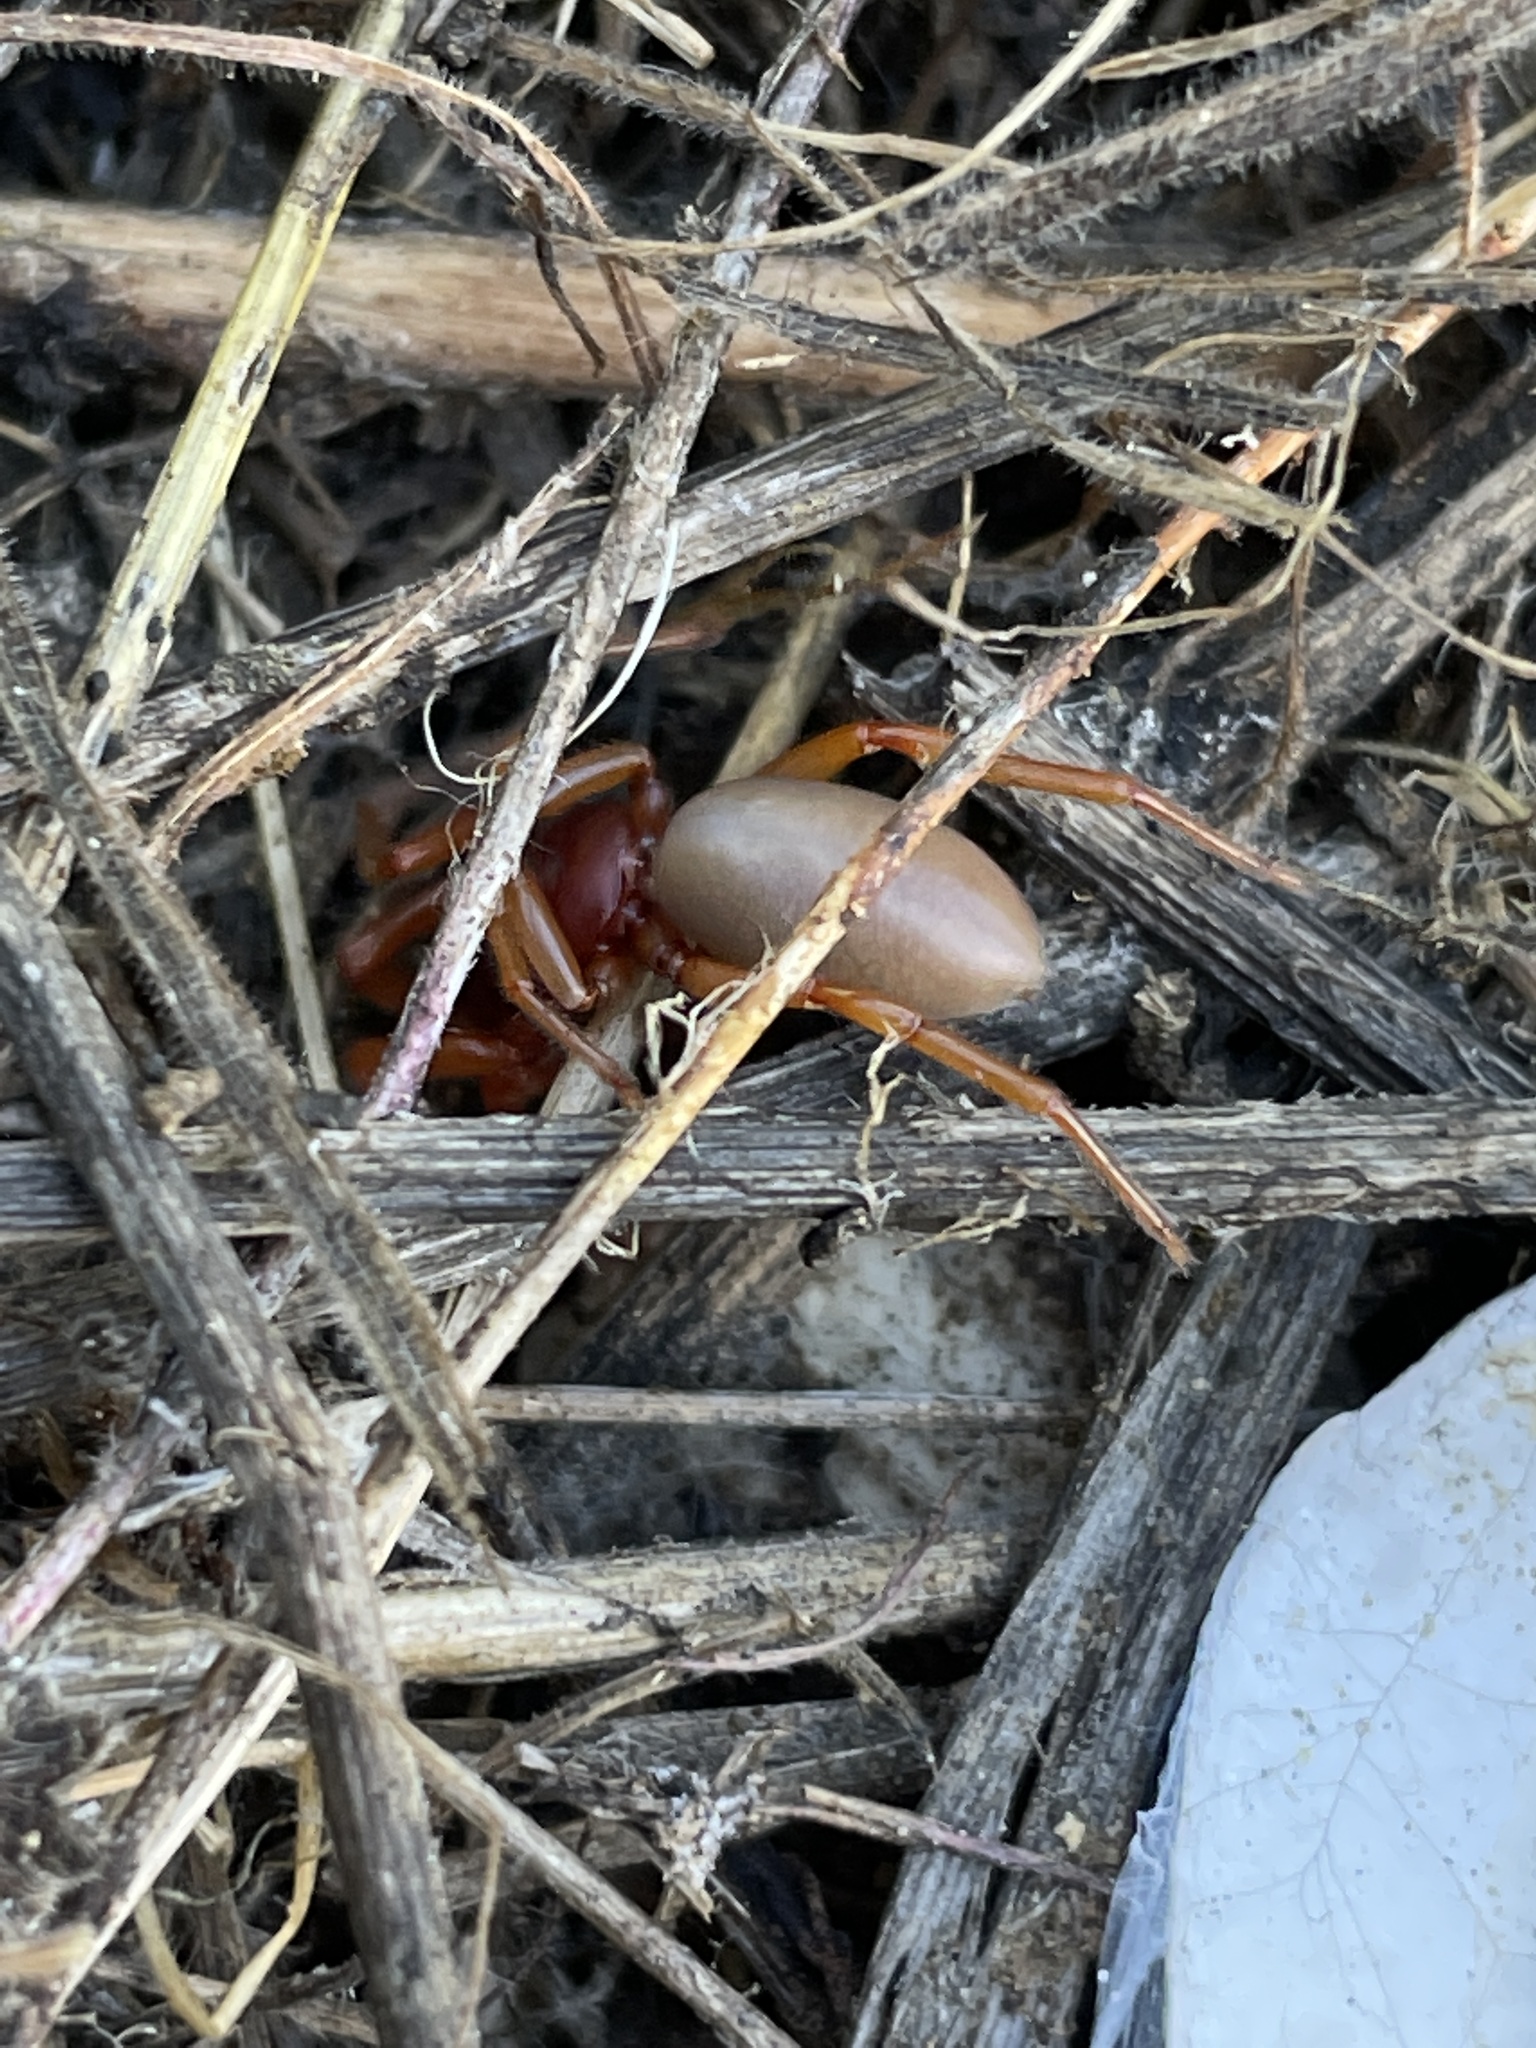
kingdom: Animalia
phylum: Arthropoda
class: Arachnida
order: Araneae
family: Dysderidae
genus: Dysdera
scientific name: Dysdera crocata
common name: Woodlouse spider
